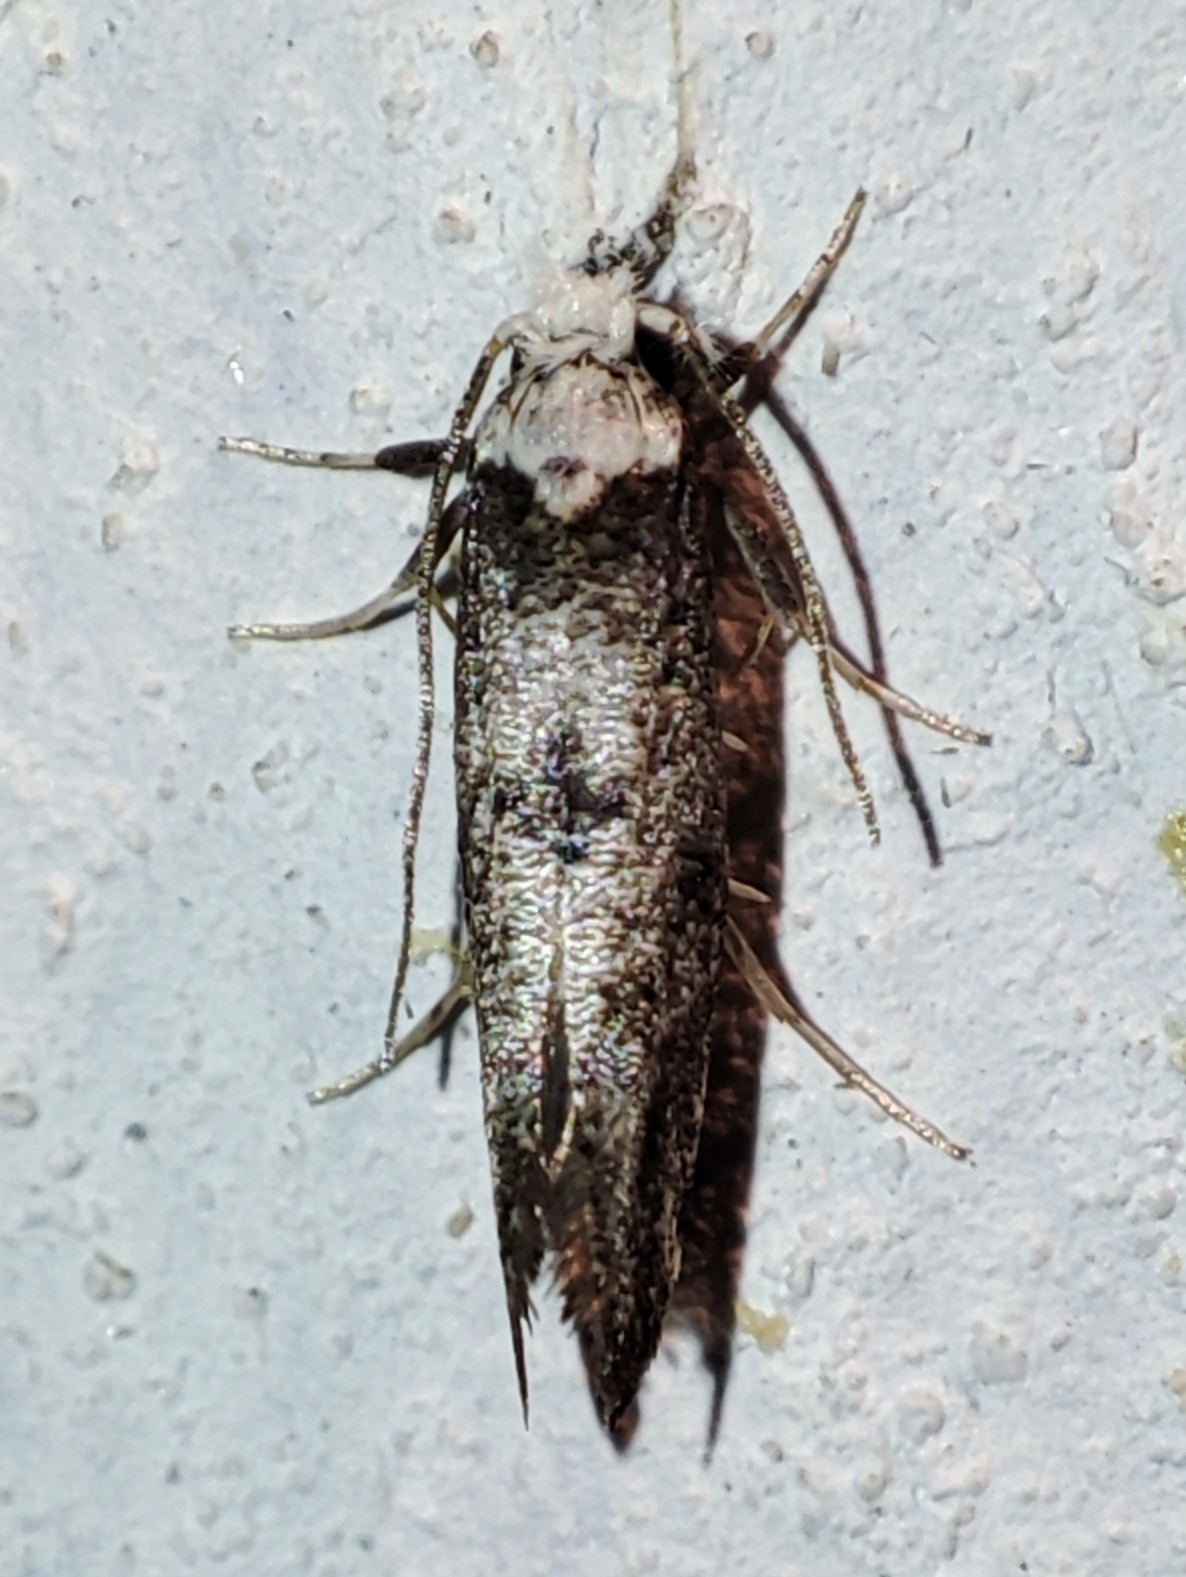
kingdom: Animalia
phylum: Arthropoda
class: Insecta
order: Lepidoptera
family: Yponomeutidae
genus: Paraswammerdamia
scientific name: Paraswammerdamia albicapitella
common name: White-headed ermel
